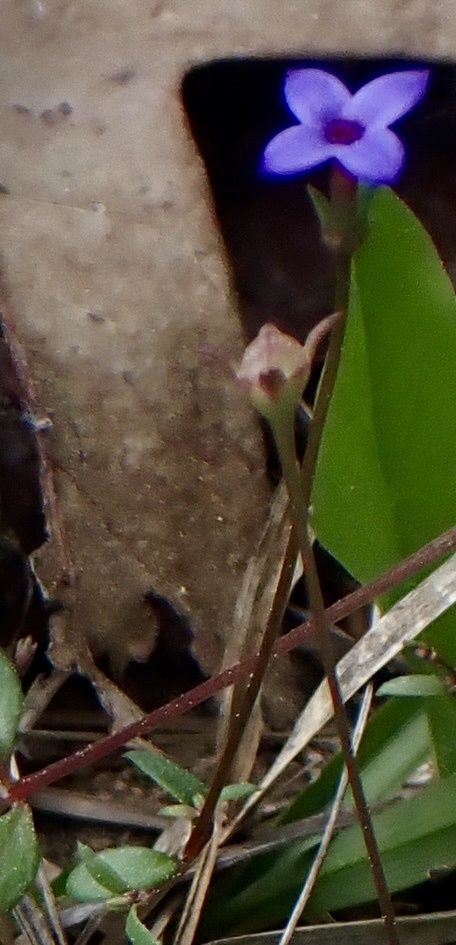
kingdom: Plantae
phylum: Tracheophyta
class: Magnoliopsida
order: Gentianales
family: Rubiaceae
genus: Houstonia
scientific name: Houstonia pusilla
